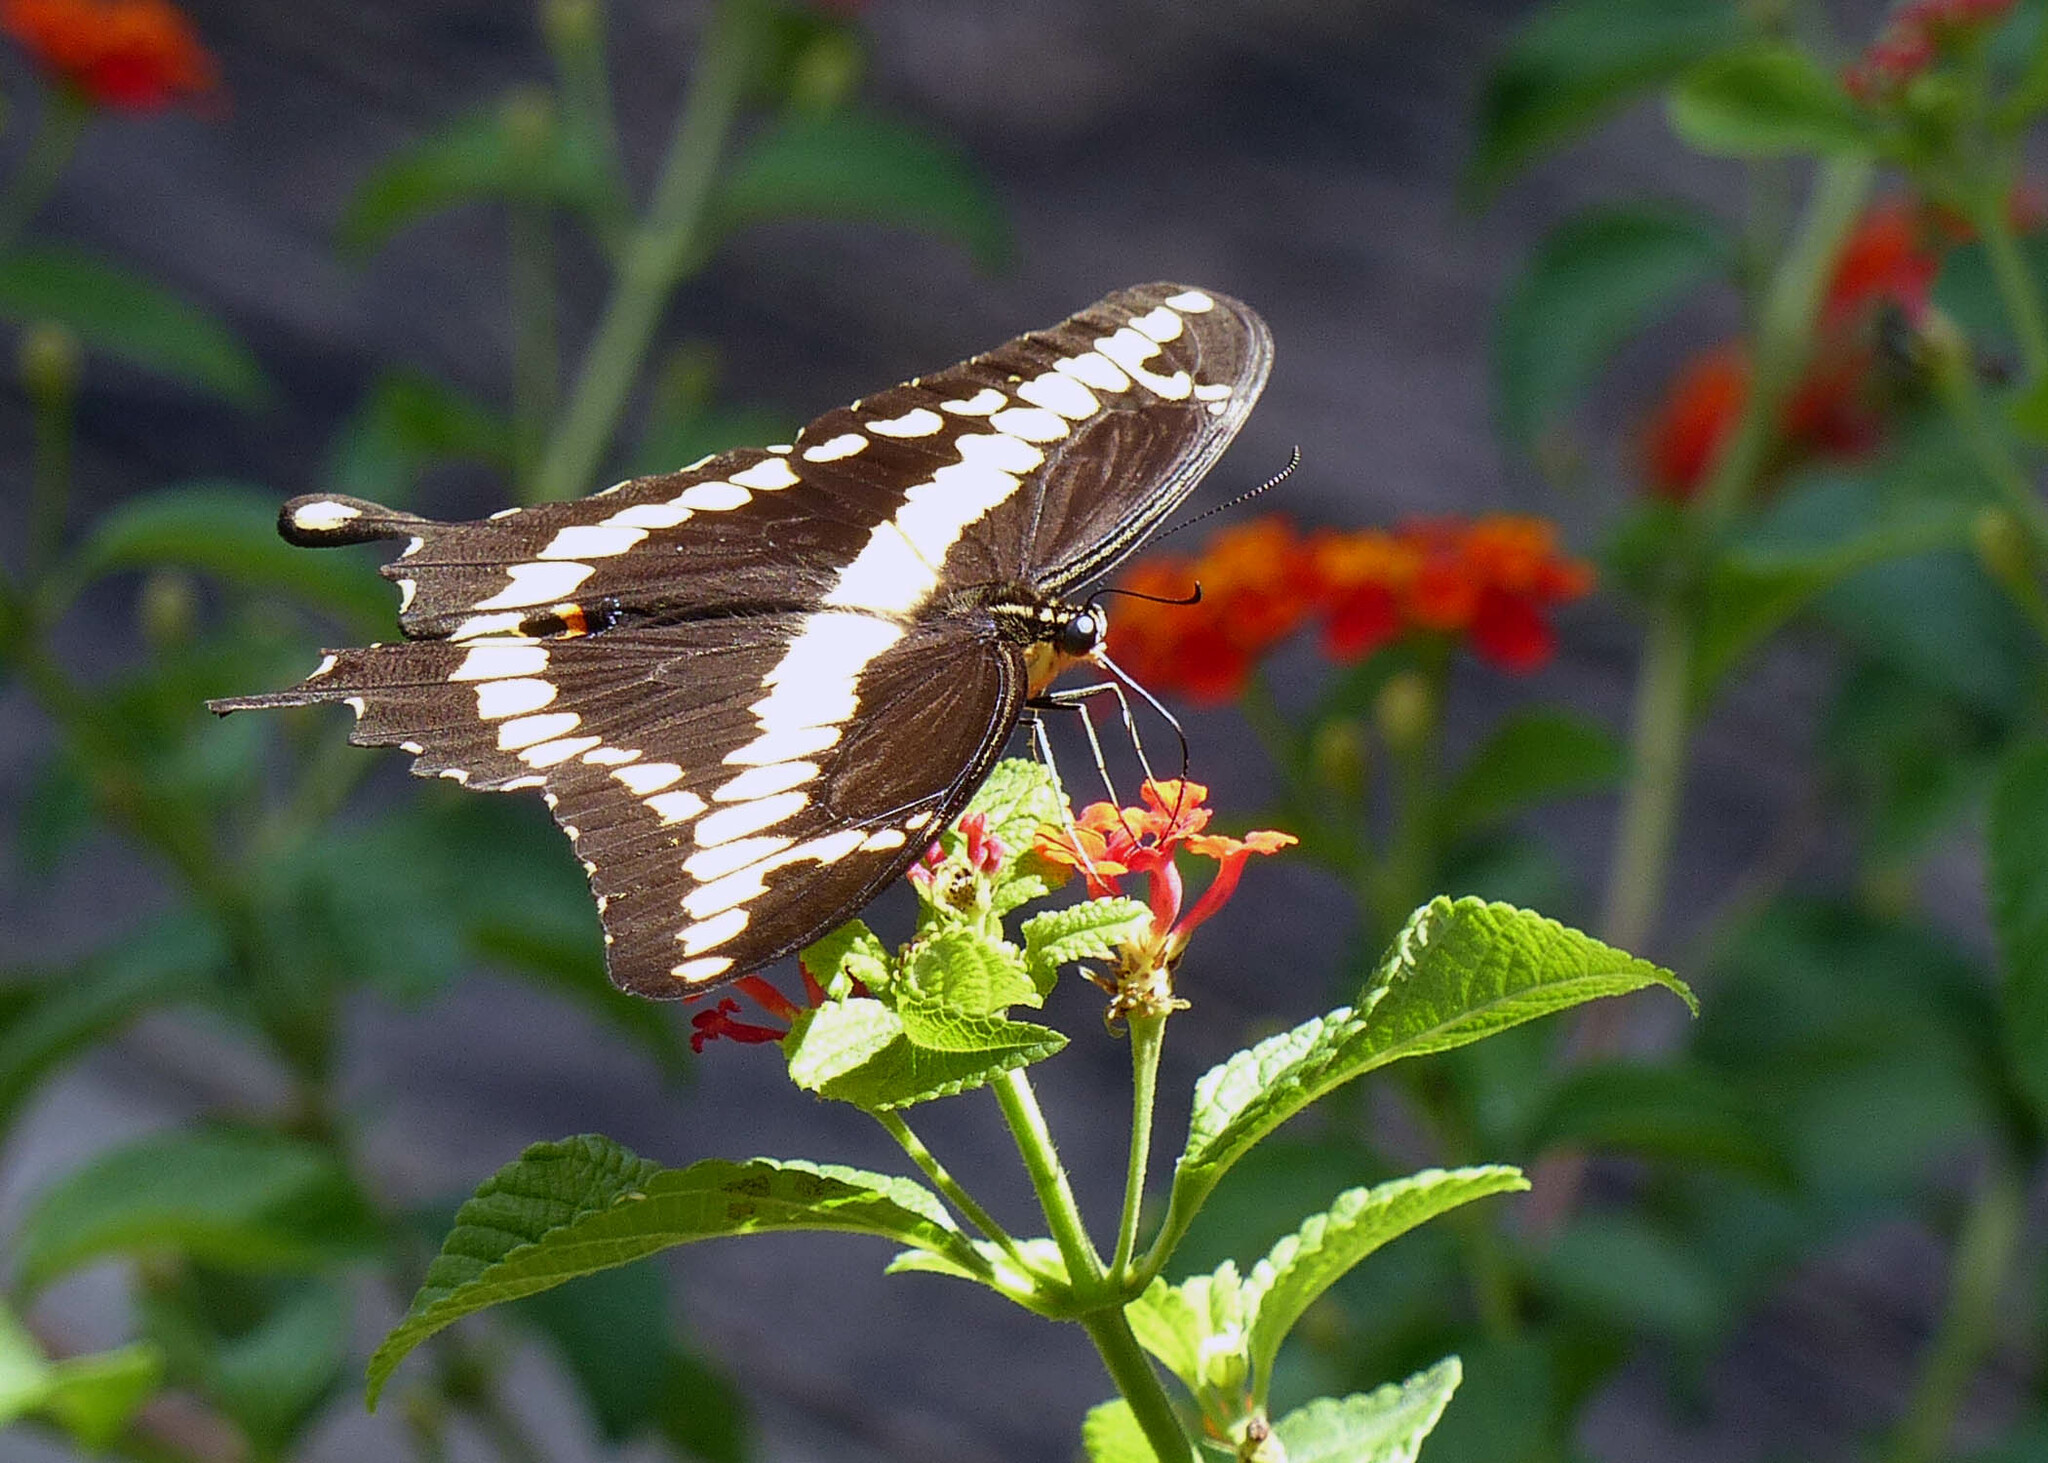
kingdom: Animalia
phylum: Arthropoda
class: Insecta
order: Lepidoptera
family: Papilionidae
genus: Papilio
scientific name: Papilio cresphontes
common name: Giant swallowtail
